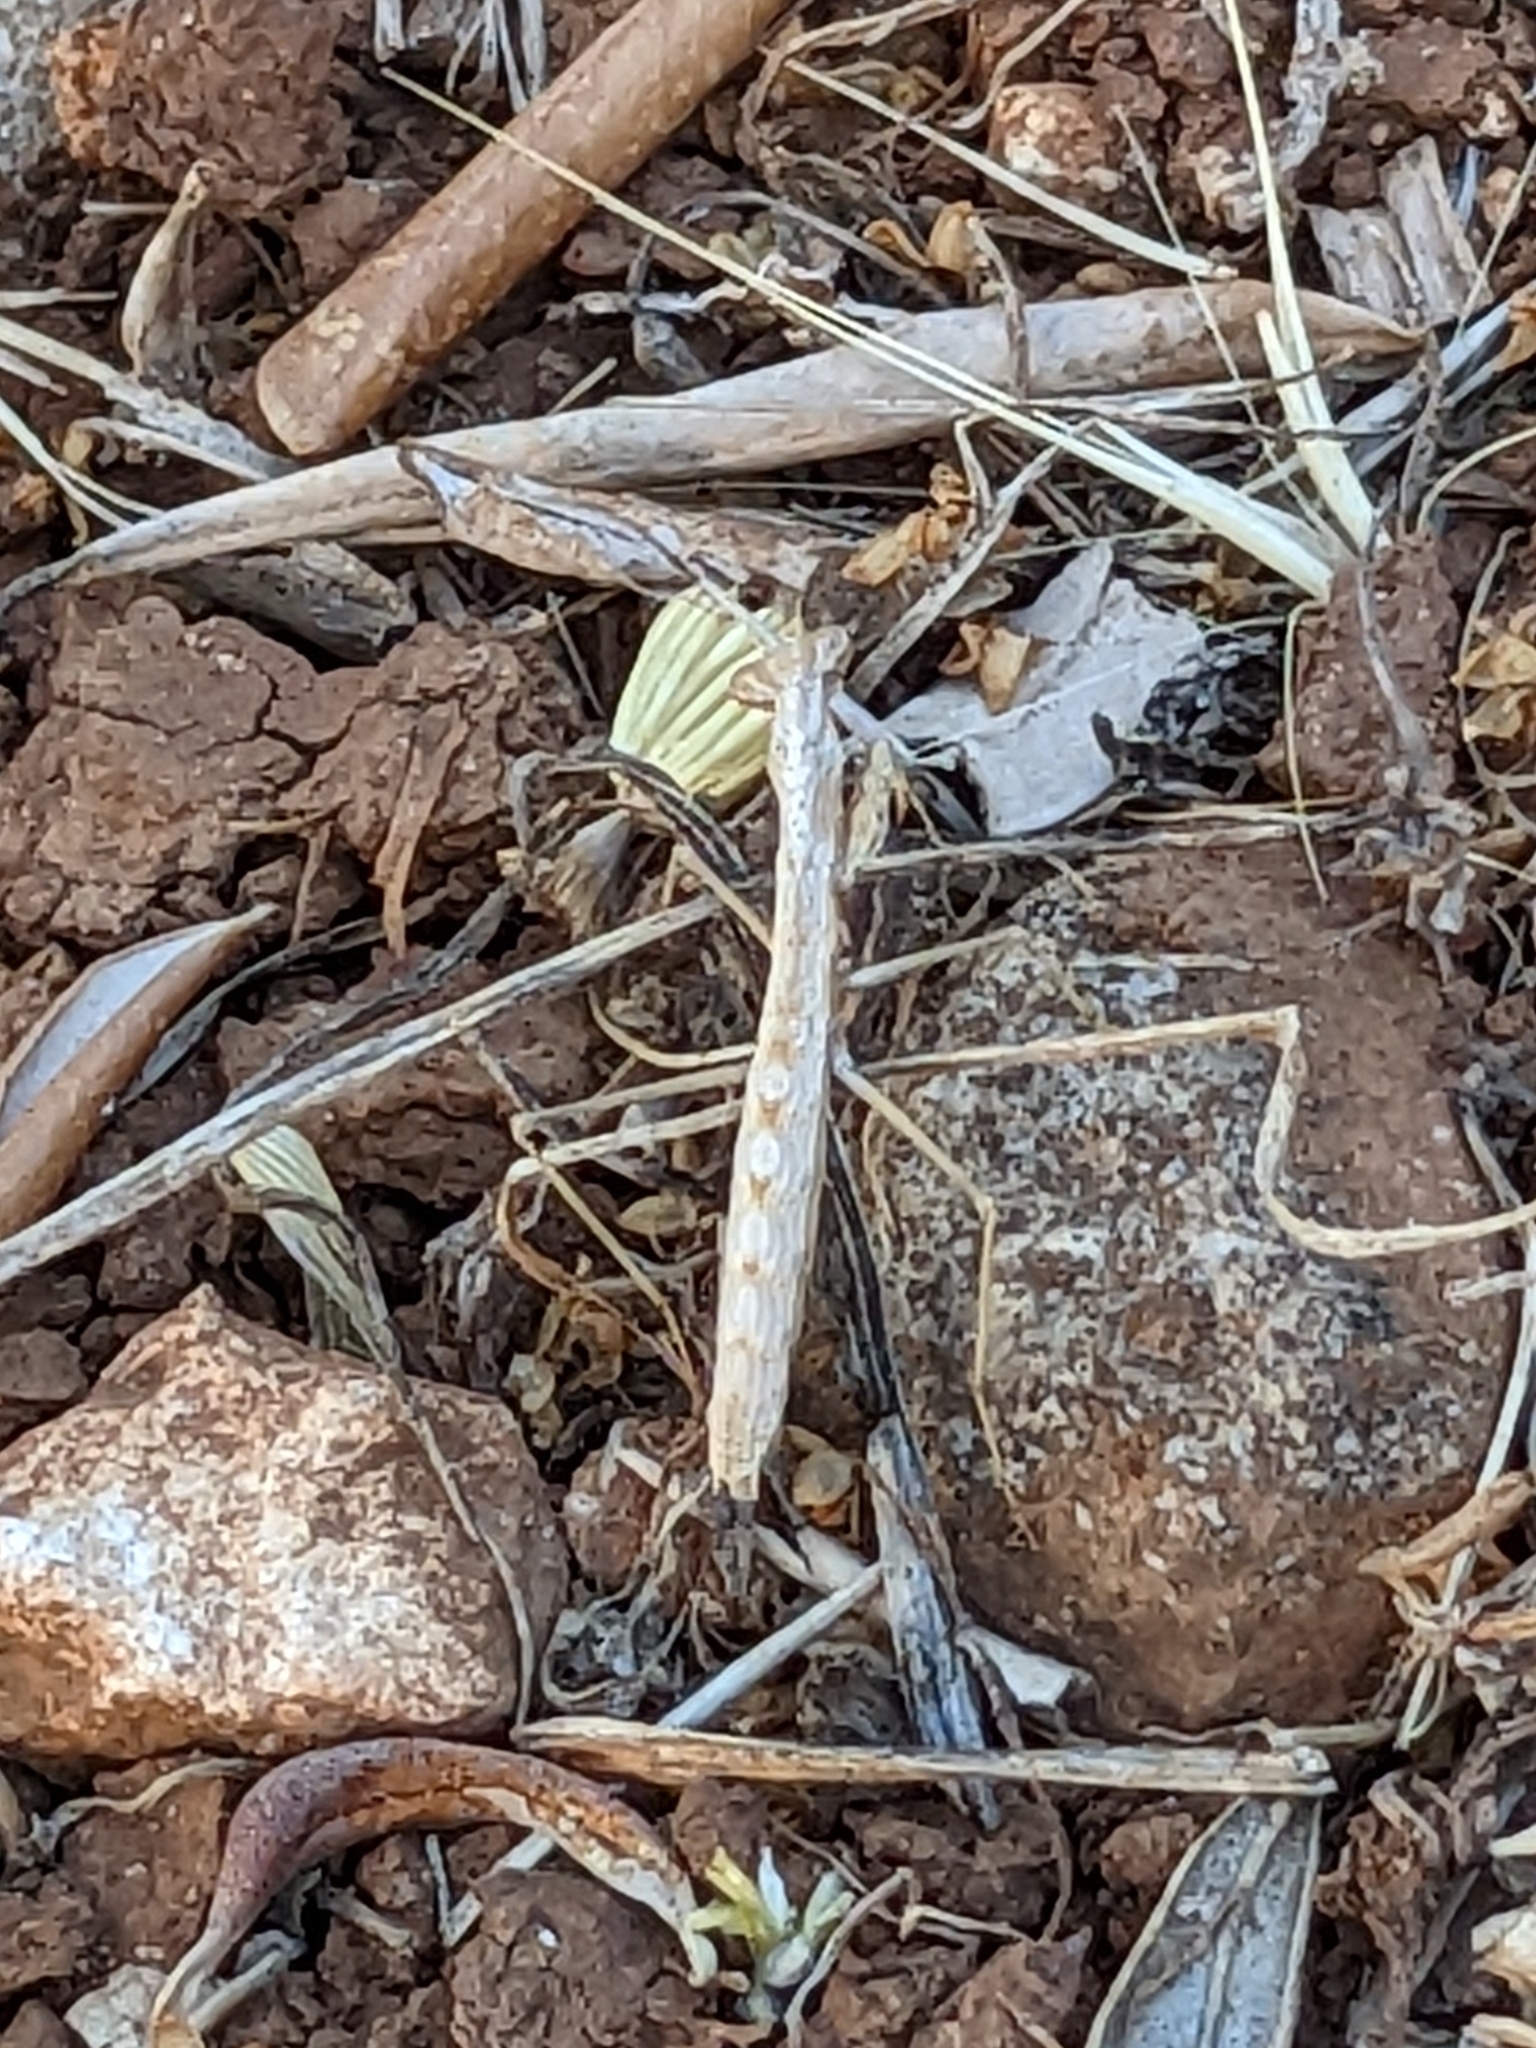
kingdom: Animalia
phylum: Arthropoda
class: Insecta
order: Mantodea
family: Rivetinidae
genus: Geomantis
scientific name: Geomantis larvoides
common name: Wingless ground mantis
